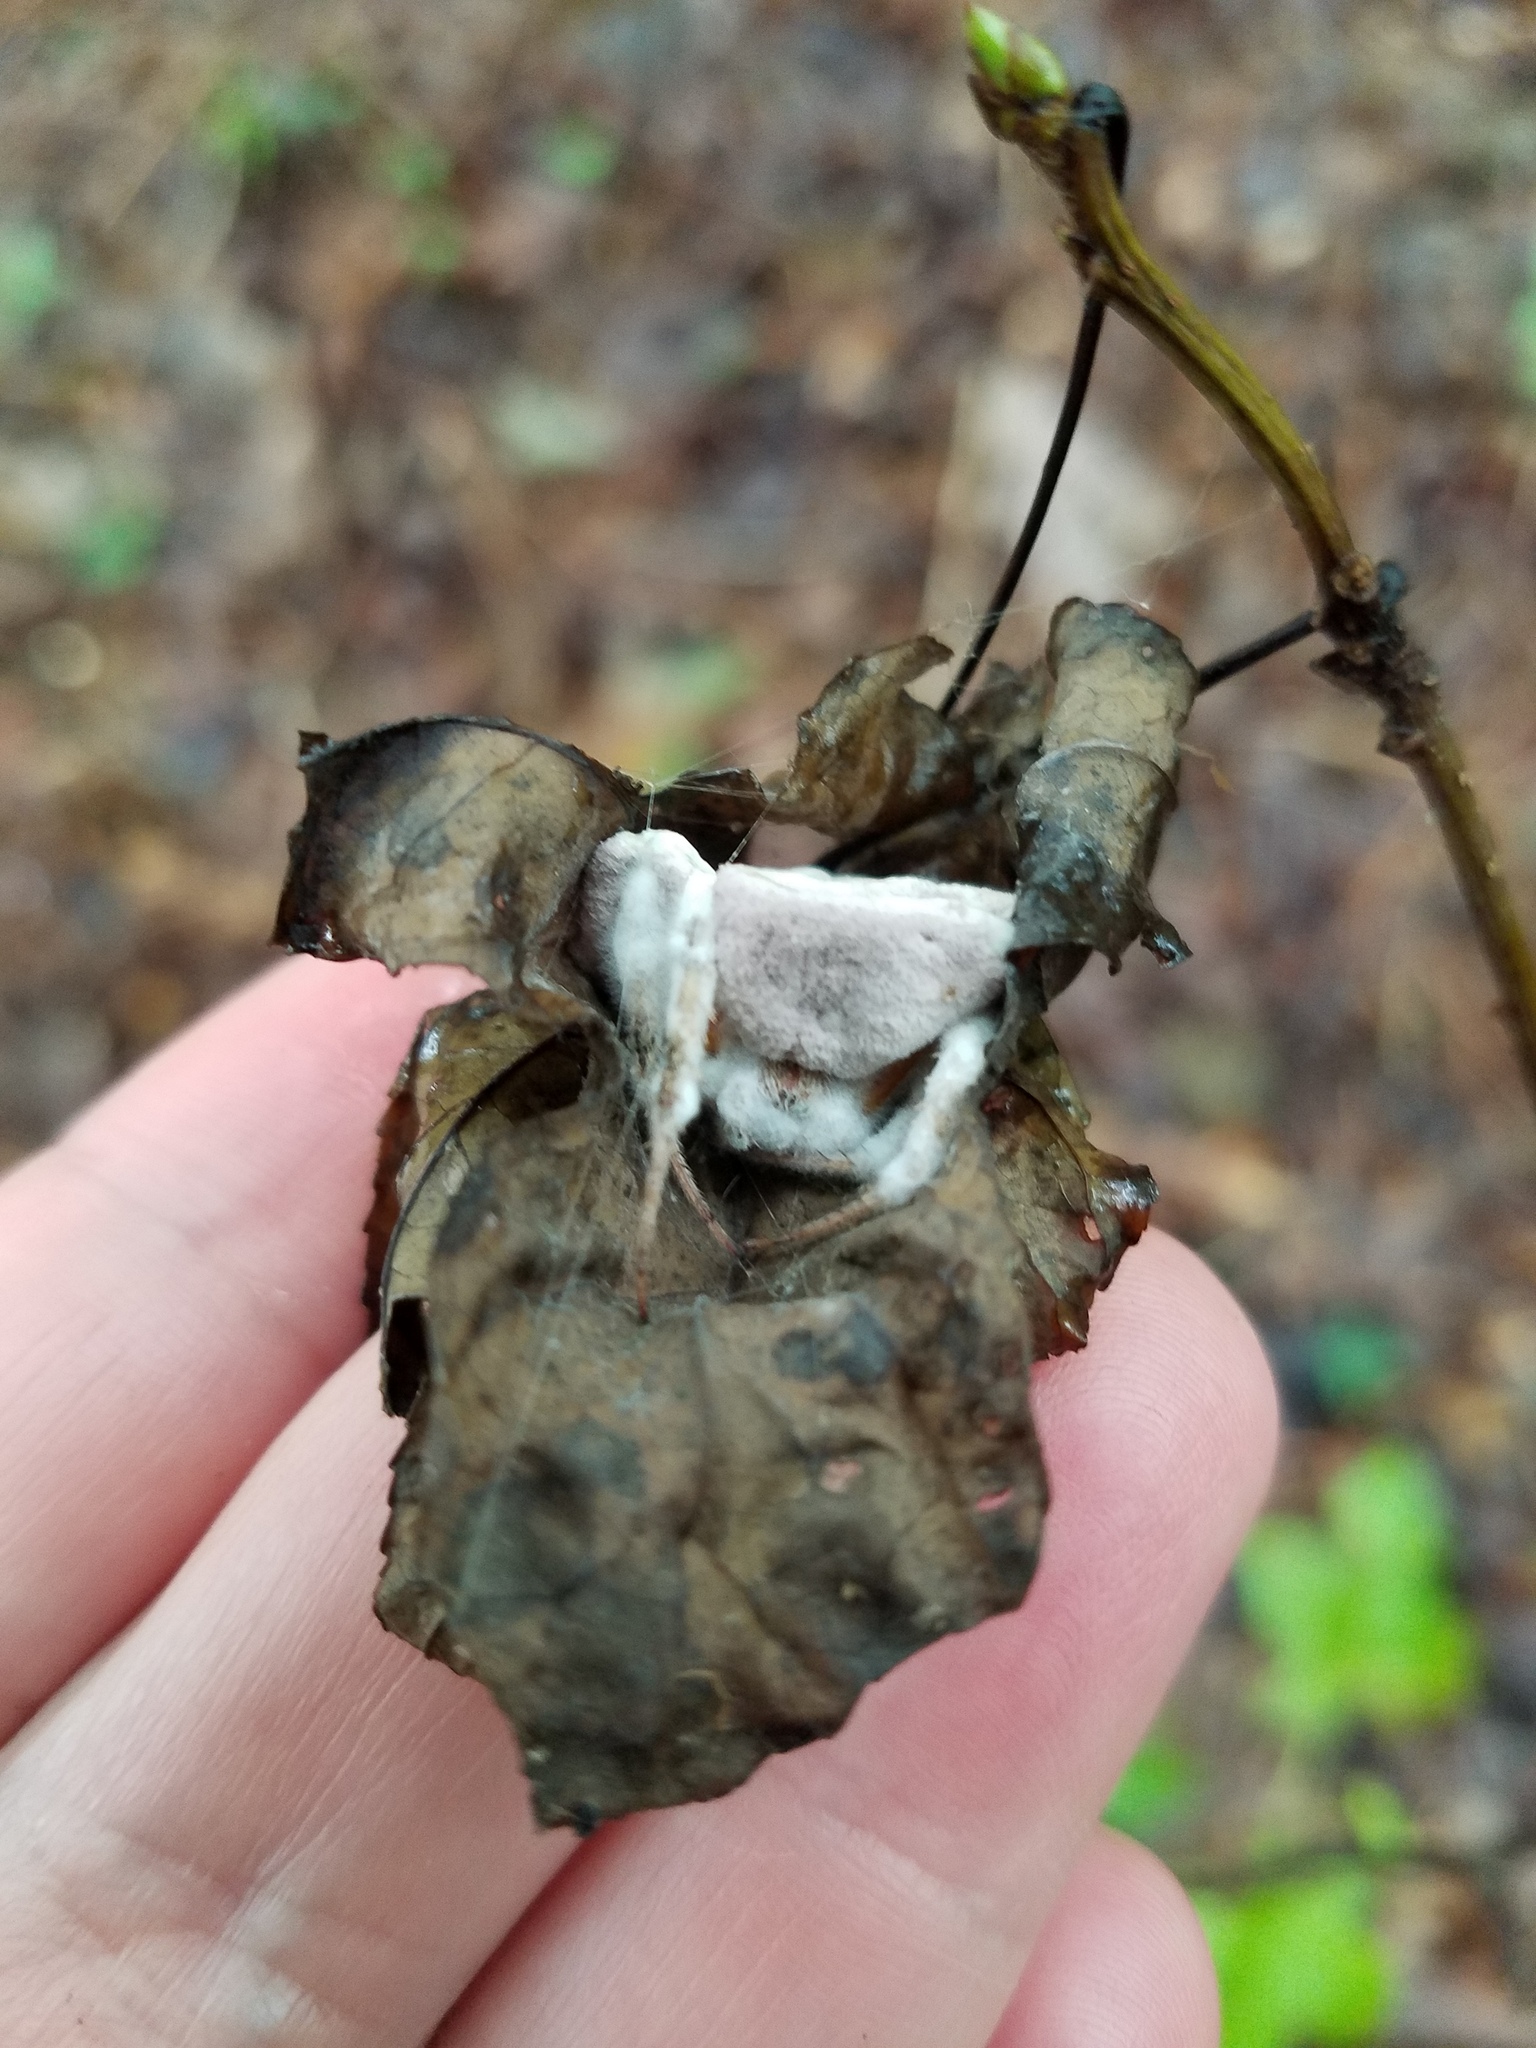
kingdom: Fungi
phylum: Ascomycota
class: Sordariomycetes
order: Hypocreales
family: Ophiocordycipitaceae
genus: Purpureocillium
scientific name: Purpureocillium atypicola
